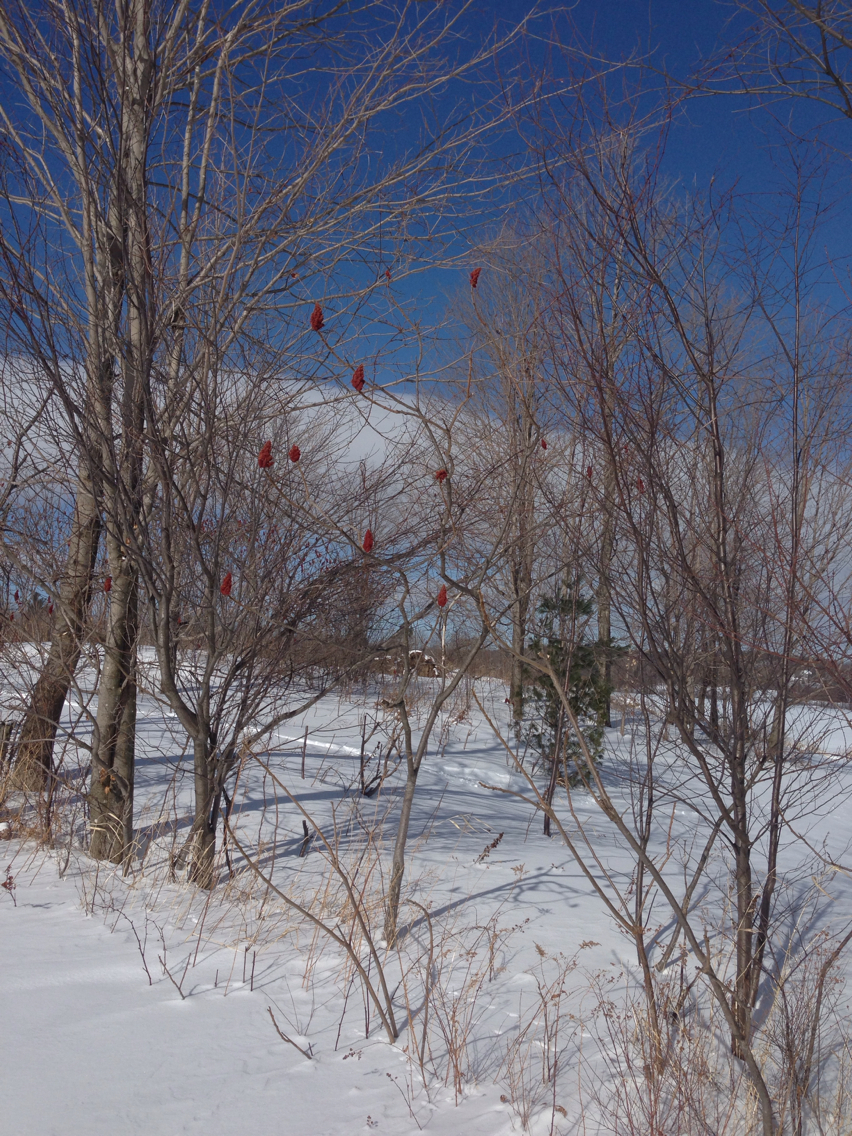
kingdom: Plantae
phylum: Tracheophyta
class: Magnoliopsida
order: Sapindales
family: Anacardiaceae
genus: Rhus
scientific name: Rhus typhina
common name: Staghorn sumac
